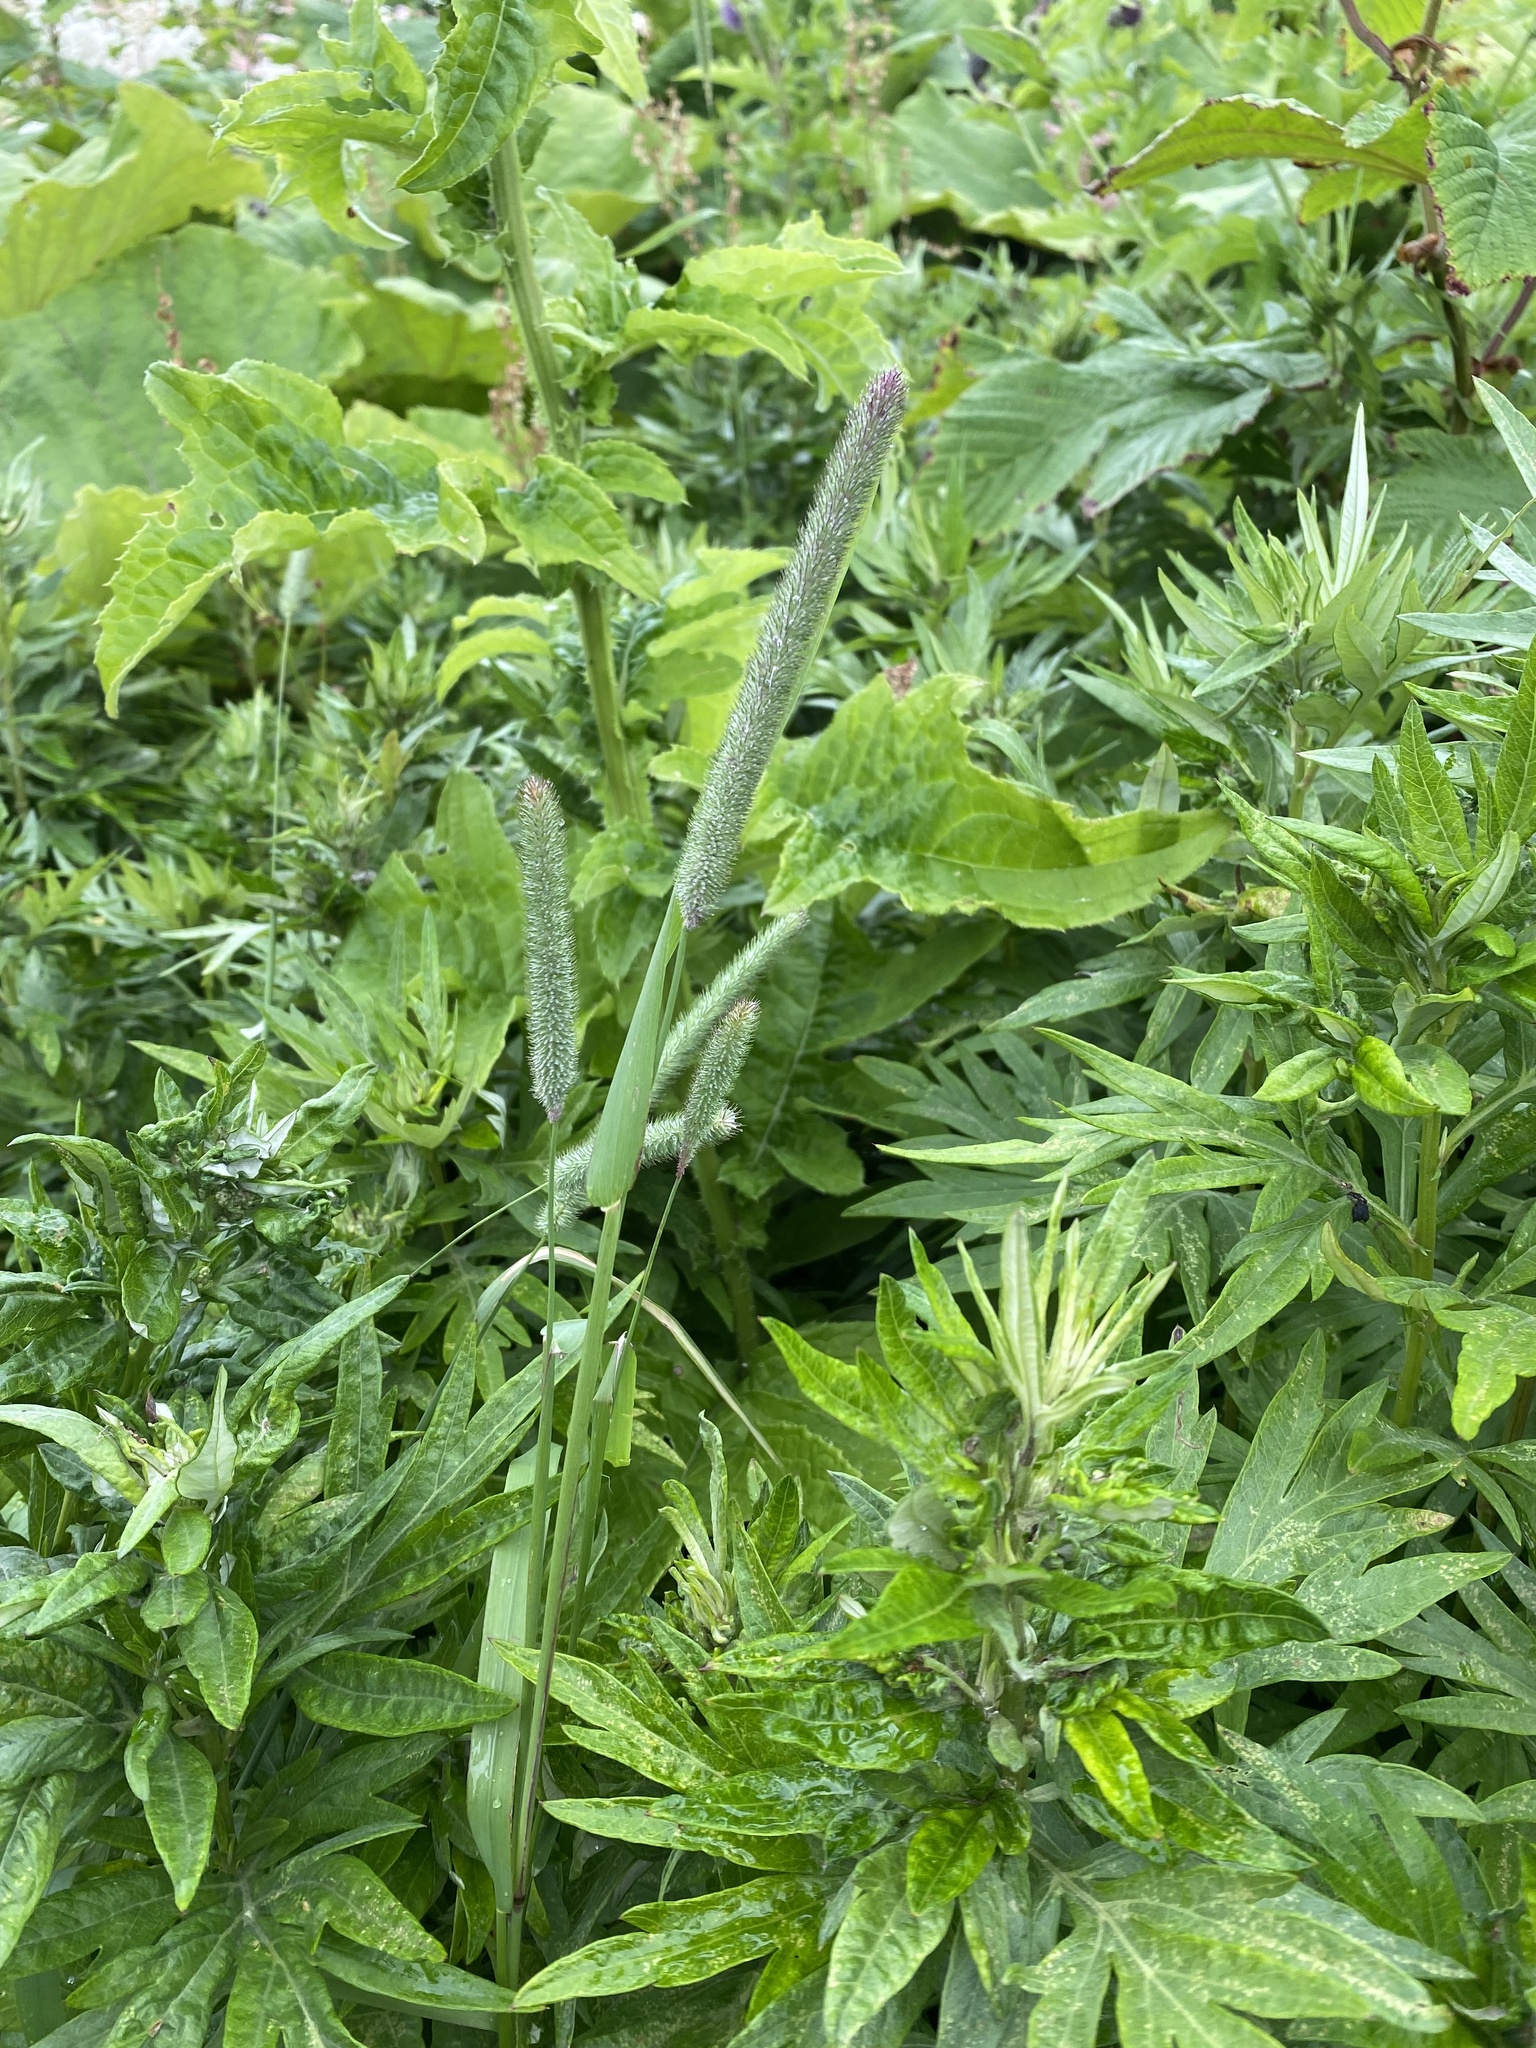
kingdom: Plantae
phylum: Tracheophyta
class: Liliopsida
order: Poales
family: Poaceae
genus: Phleum
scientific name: Phleum pratense
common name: Timothy grass
